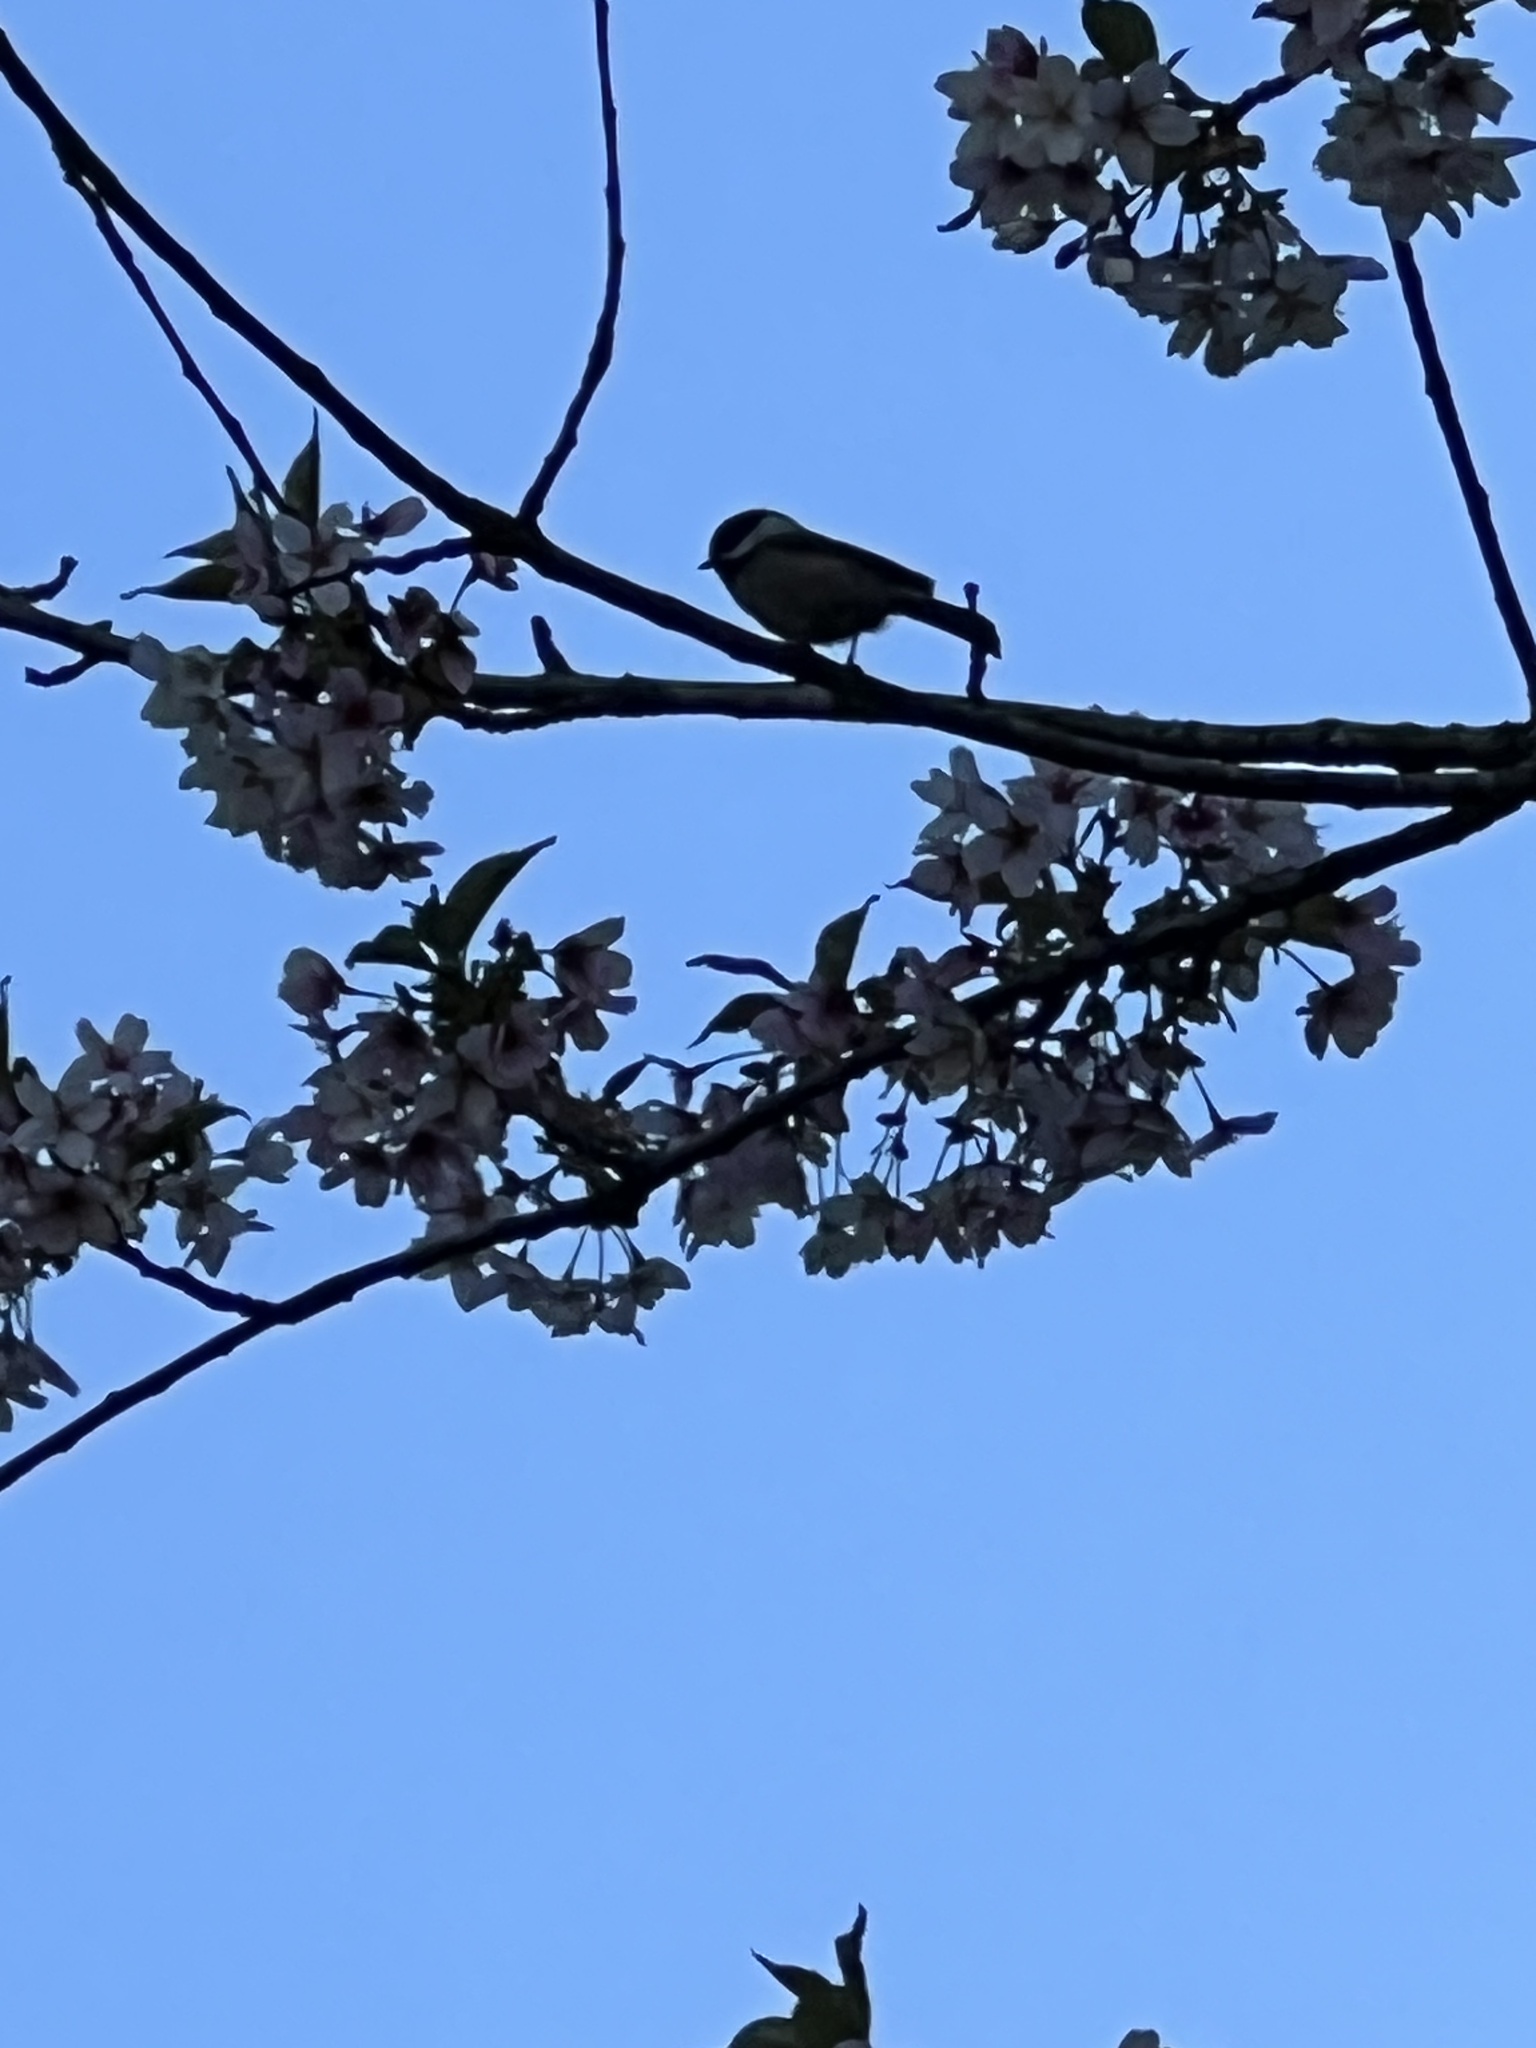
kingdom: Animalia
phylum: Chordata
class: Aves
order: Passeriformes
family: Paridae
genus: Poecile
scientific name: Poecile atricapillus
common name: Black-capped chickadee
